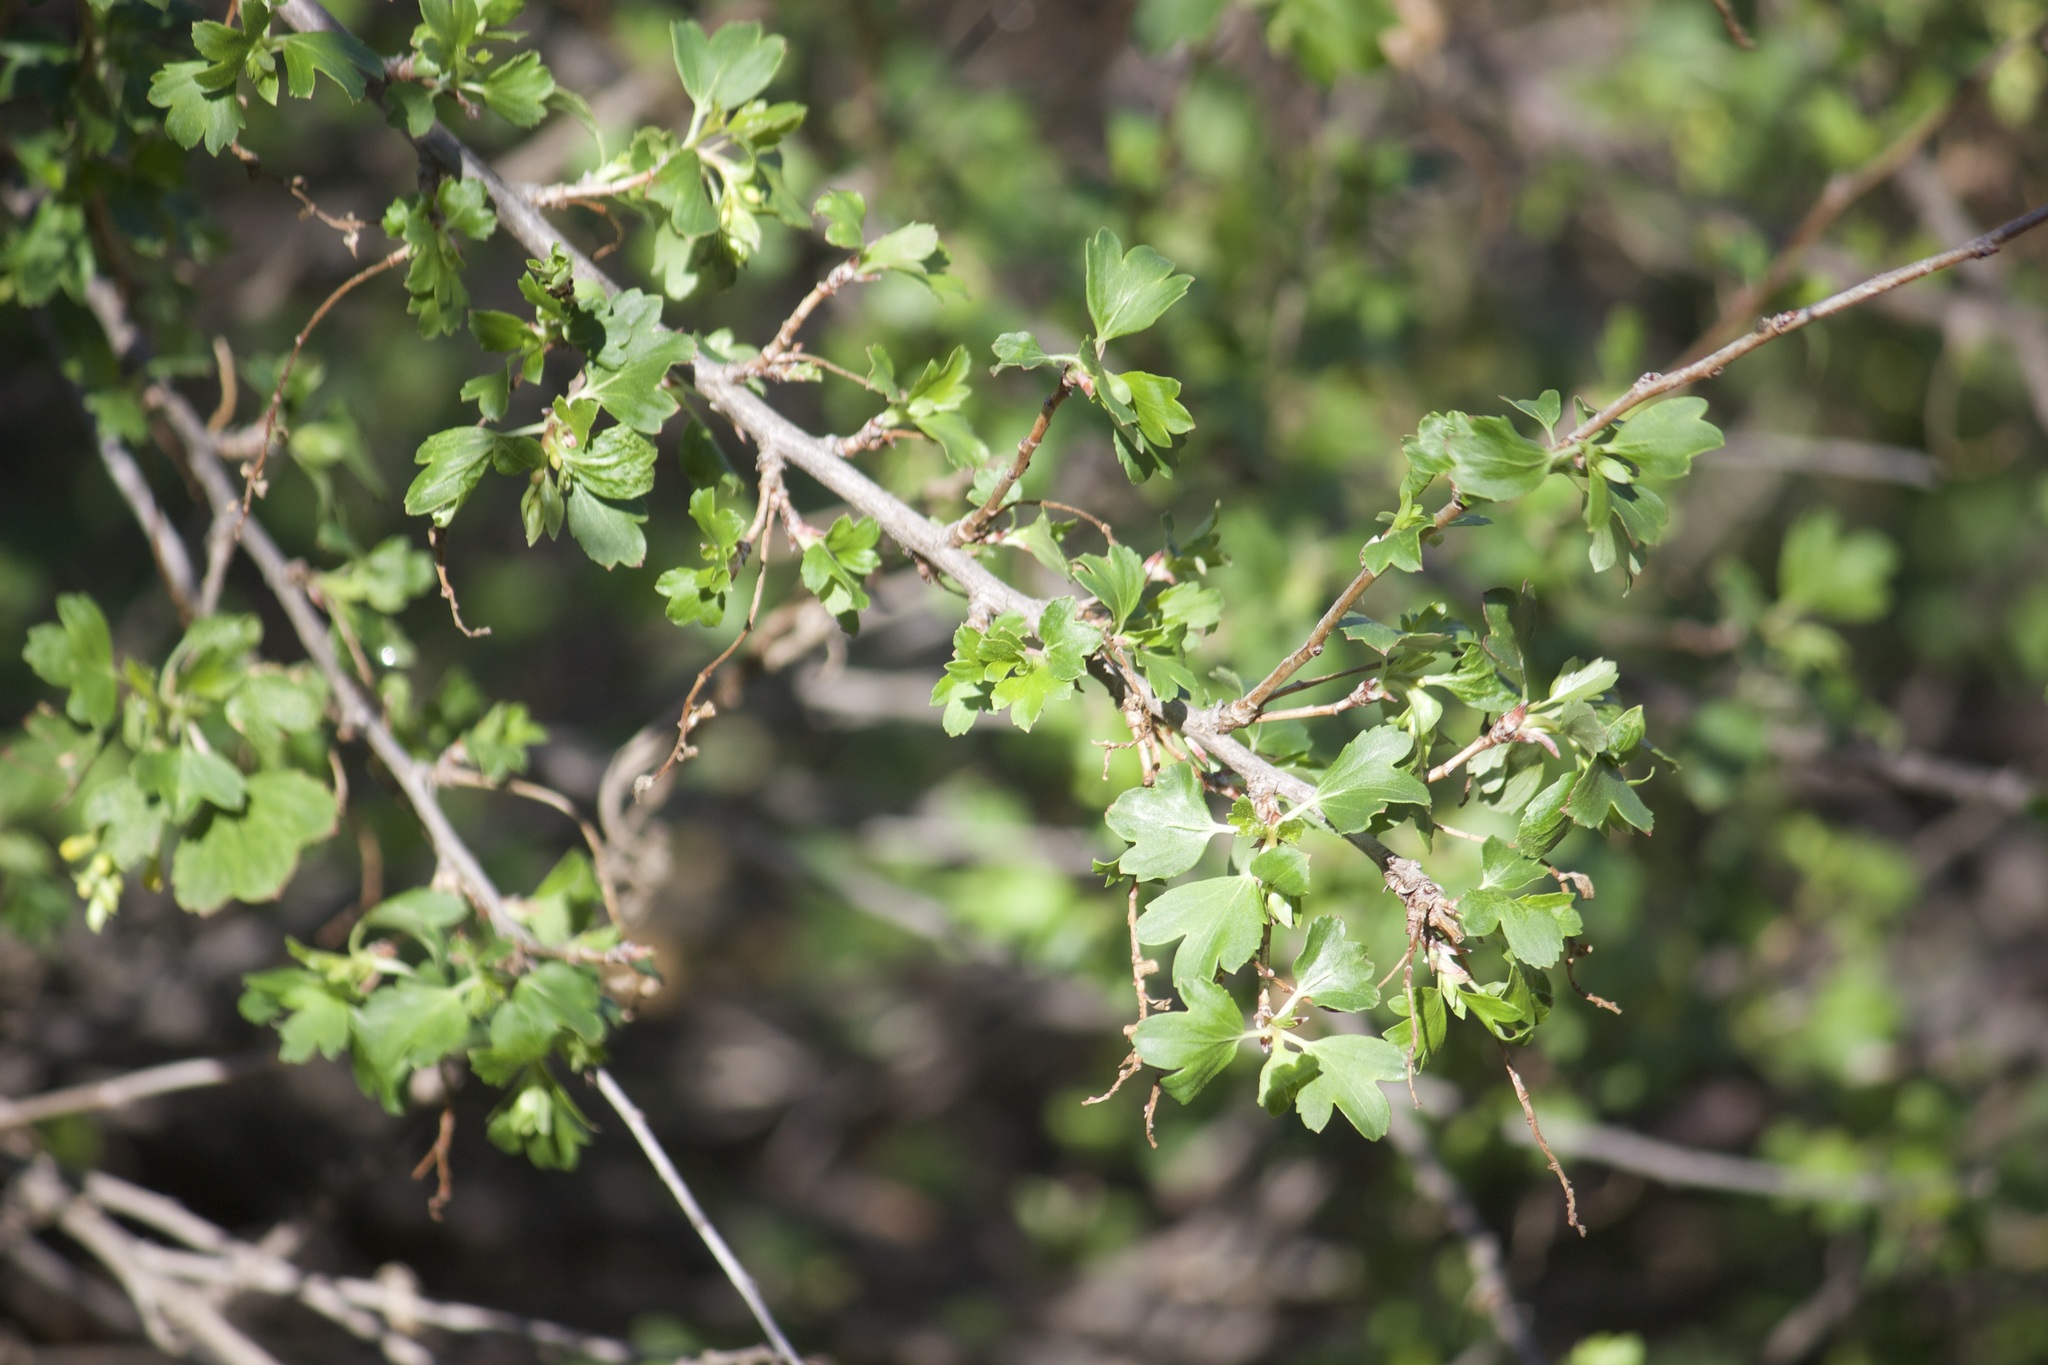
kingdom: Plantae
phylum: Tracheophyta
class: Magnoliopsida
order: Saxifragales
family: Grossulariaceae
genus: Ribes
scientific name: Ribes aureum
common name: Golden currant
